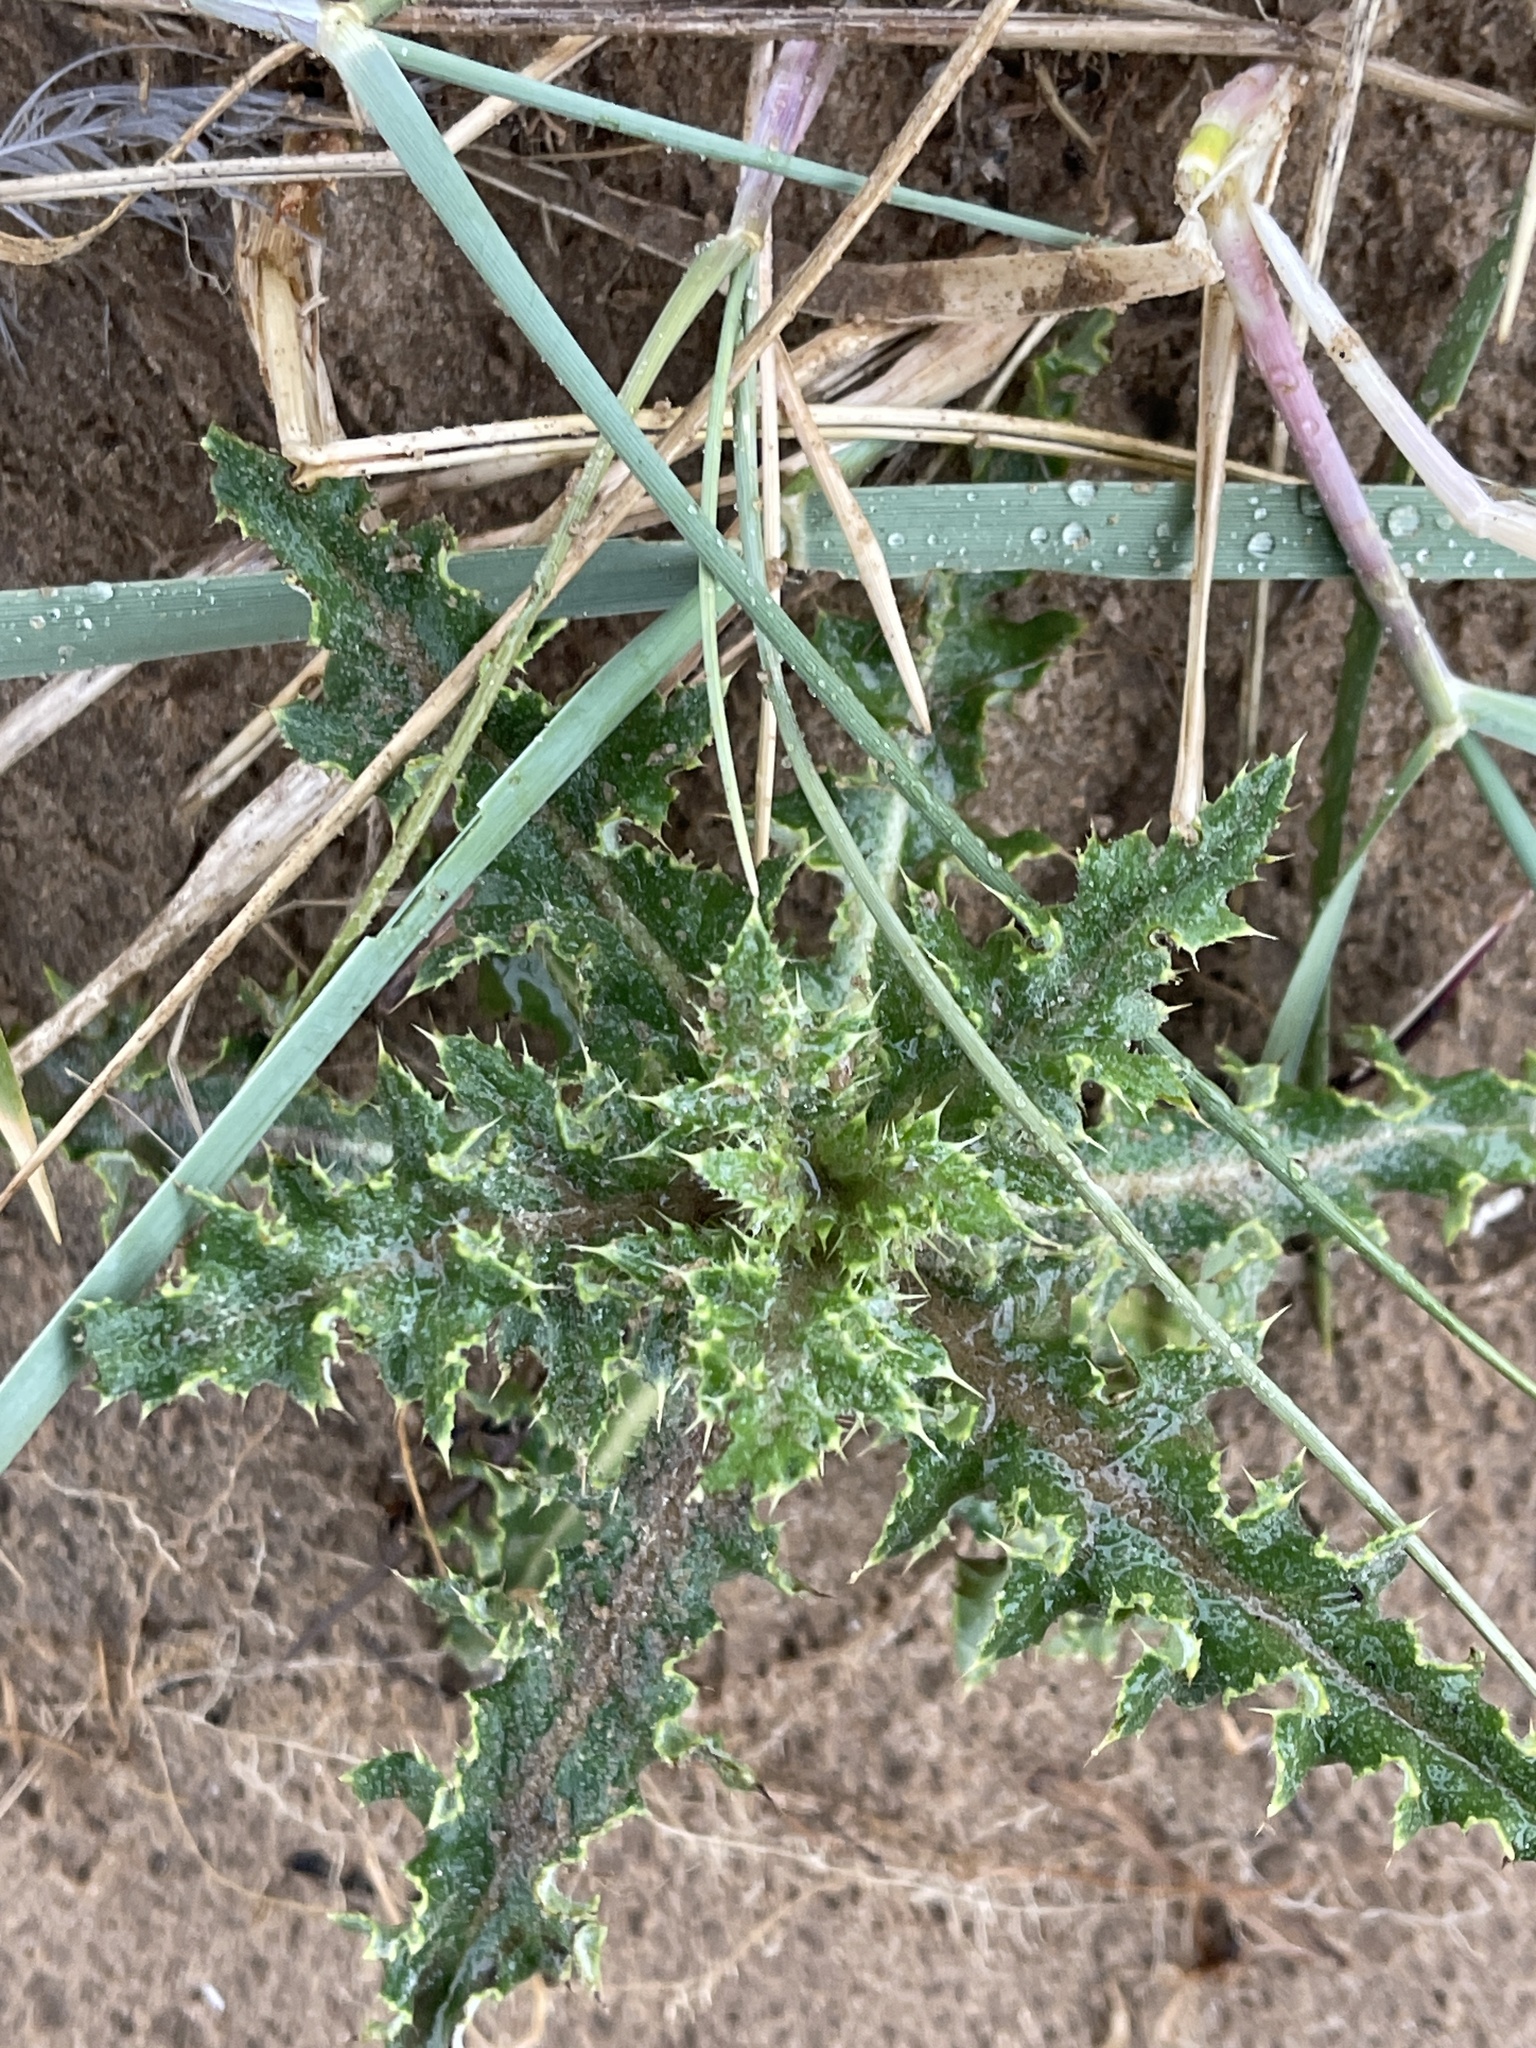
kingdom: Plantae
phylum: Tracheophyta
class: Magnoliopsida
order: Asterales
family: Asteraceae
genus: Cirsium
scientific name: Cirsium arvense
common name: Creeping thistle
